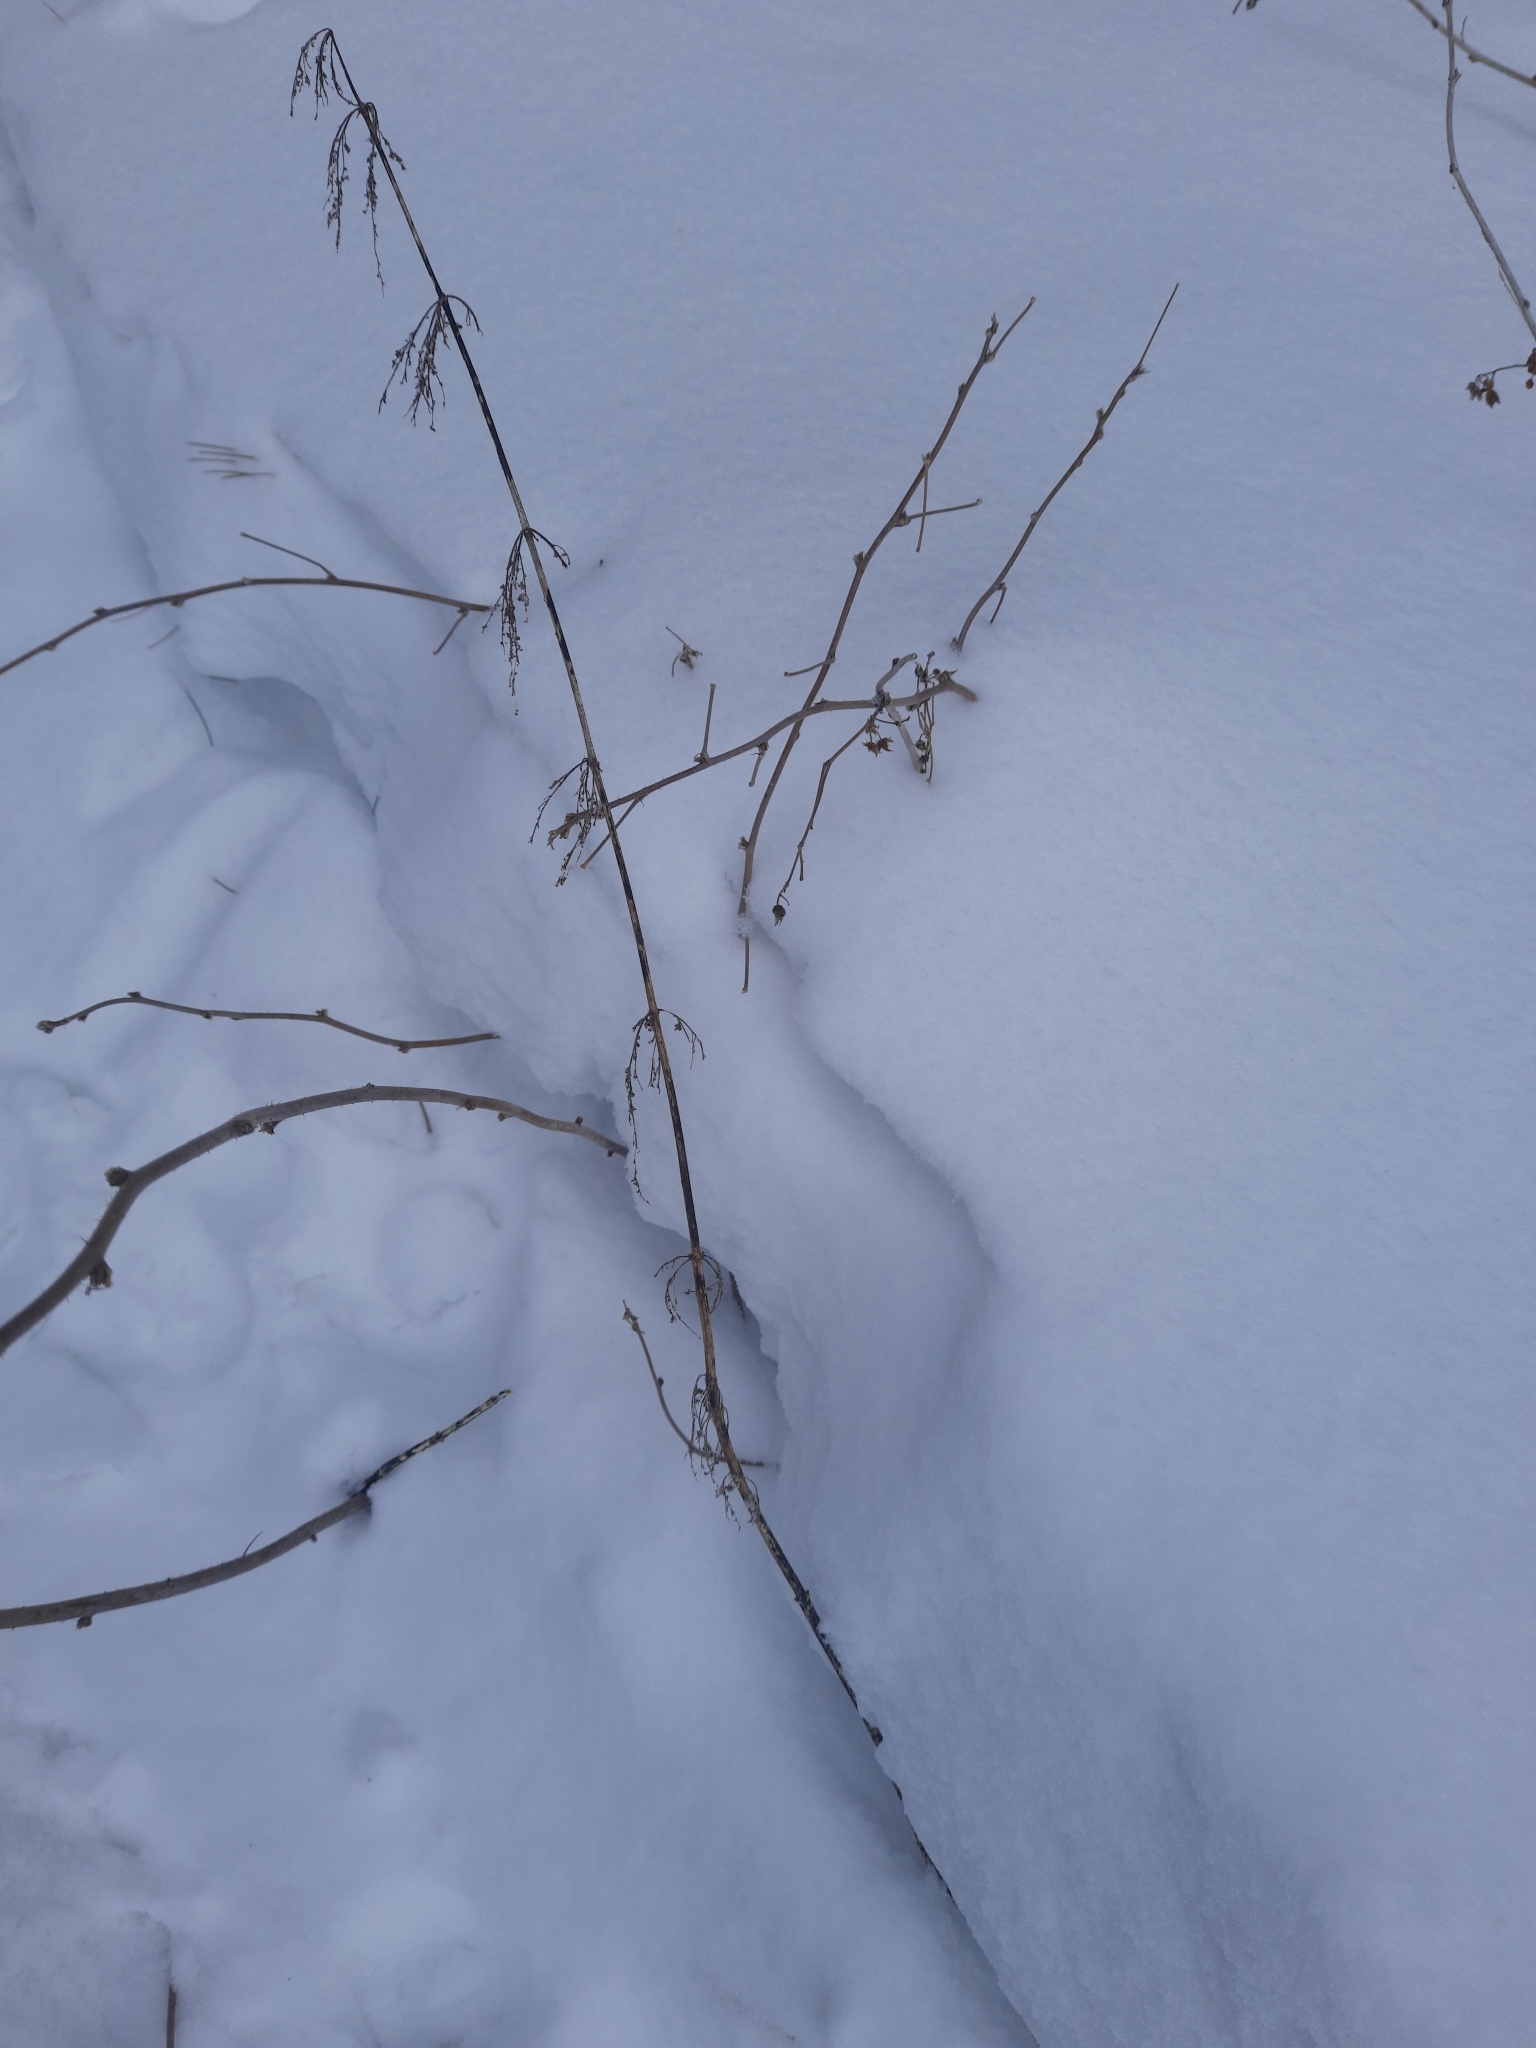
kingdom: Plantae
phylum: Tracheophyta
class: Magnoliopsida
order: Rosales
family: Urticaceae
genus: Urtica
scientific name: Urtica dioica
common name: Common nettle
